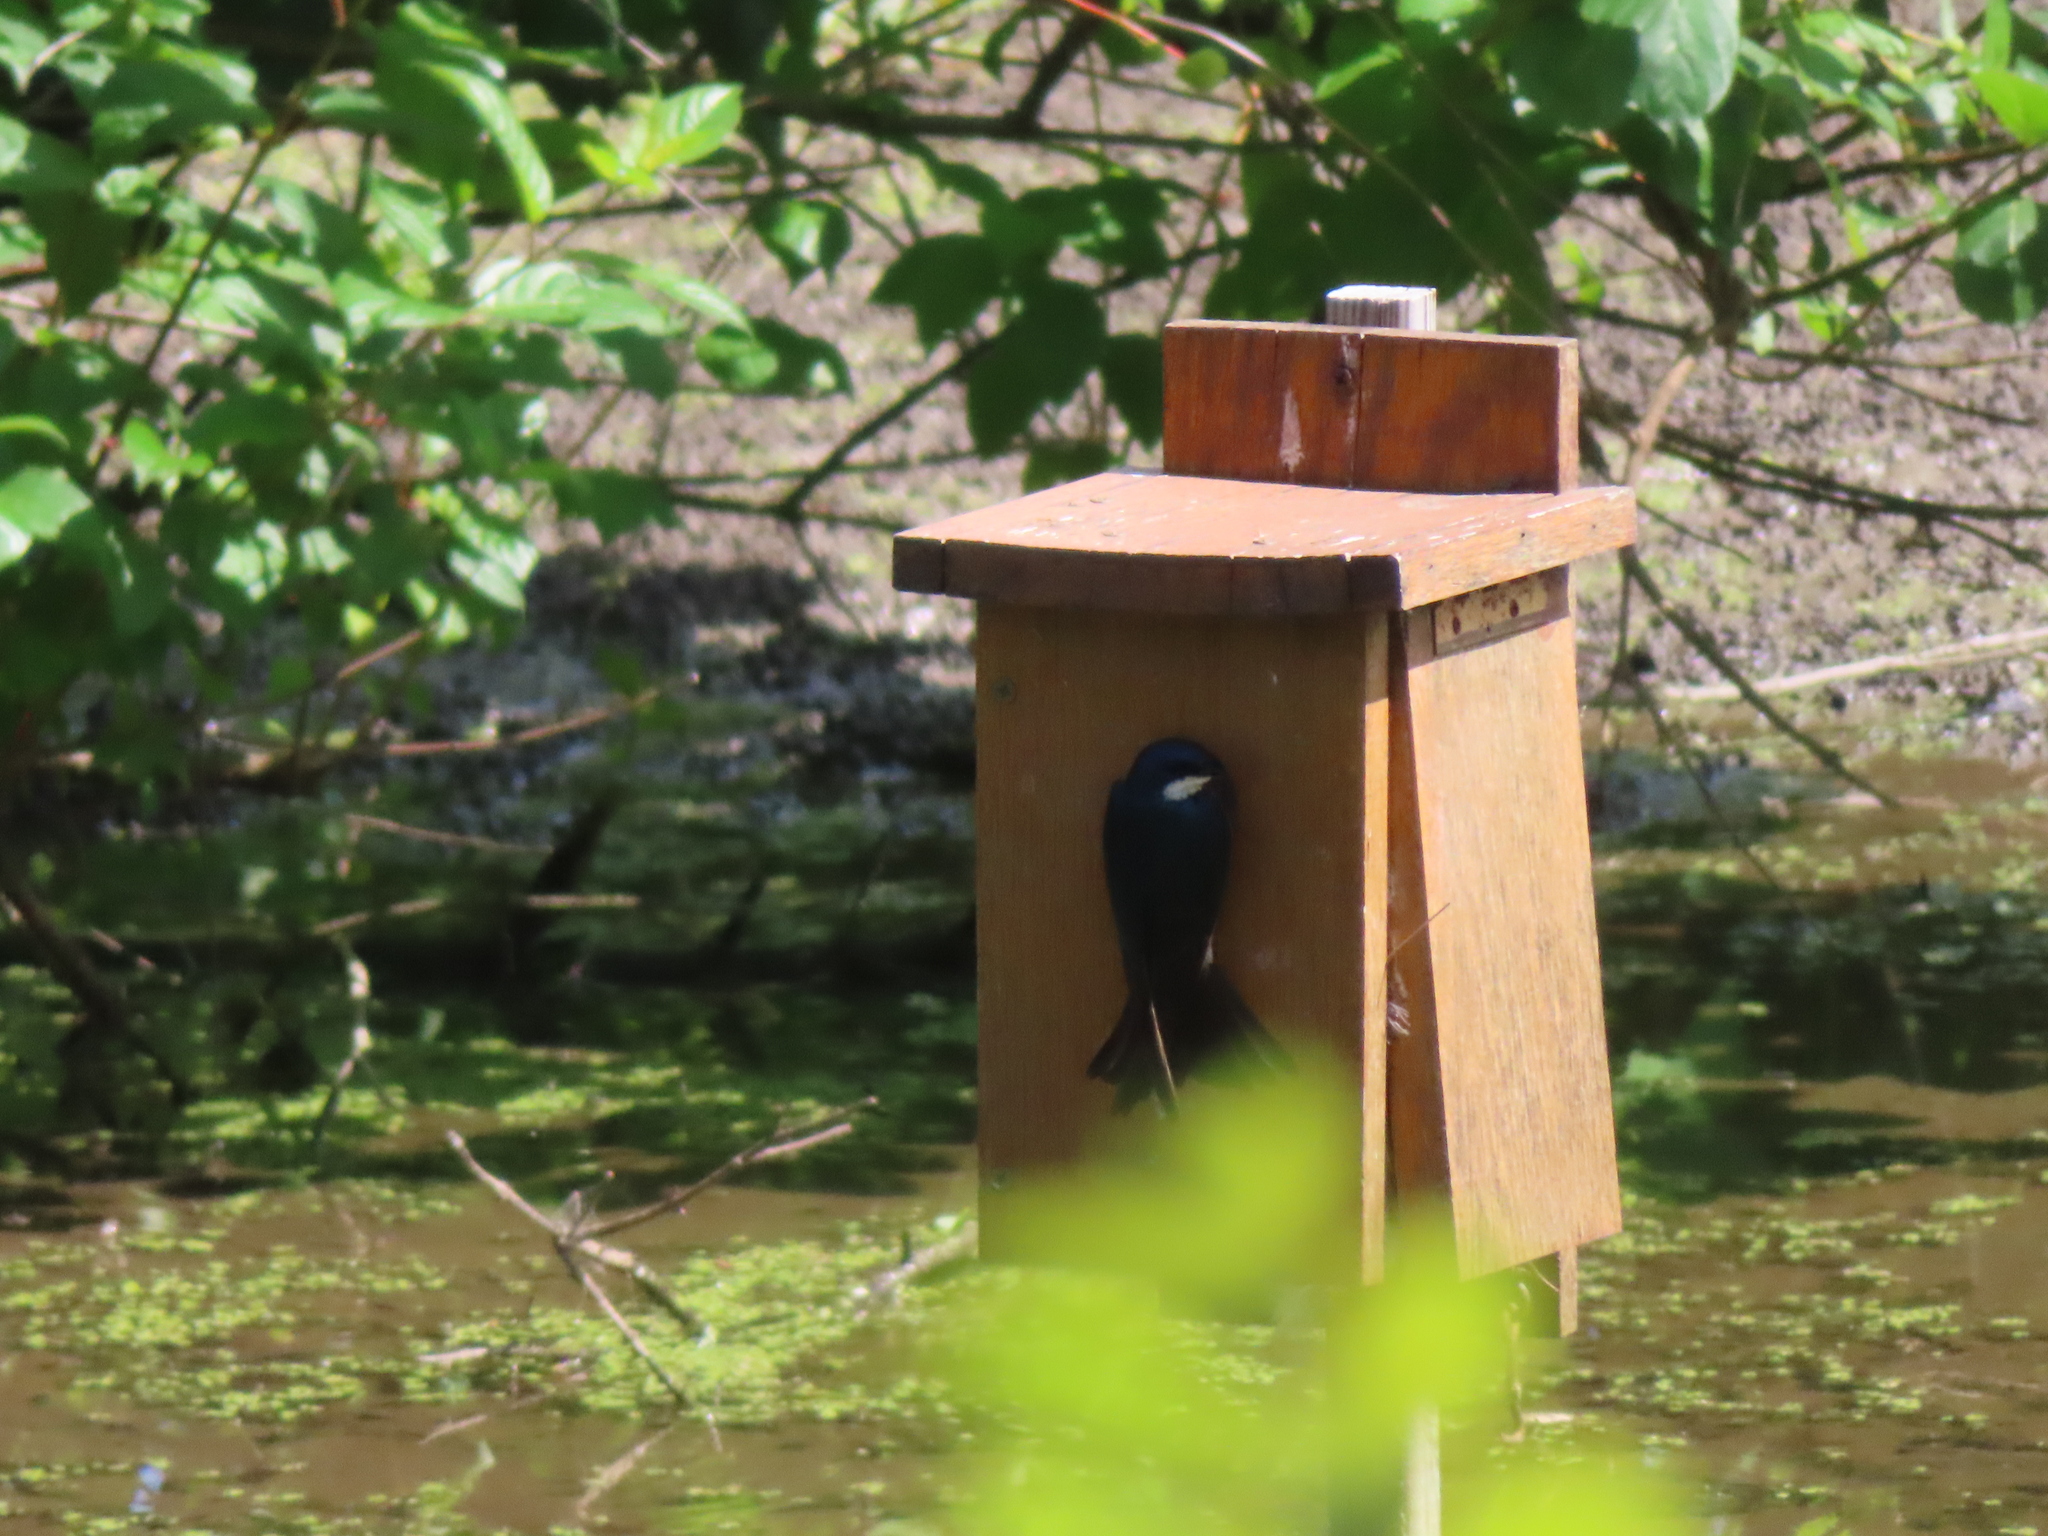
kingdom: Animalia
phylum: Chordata
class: Aves
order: Passeriformes
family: Hirundinidae
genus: Tachycineta
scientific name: Tachycineta bicolor
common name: Tree swallow
